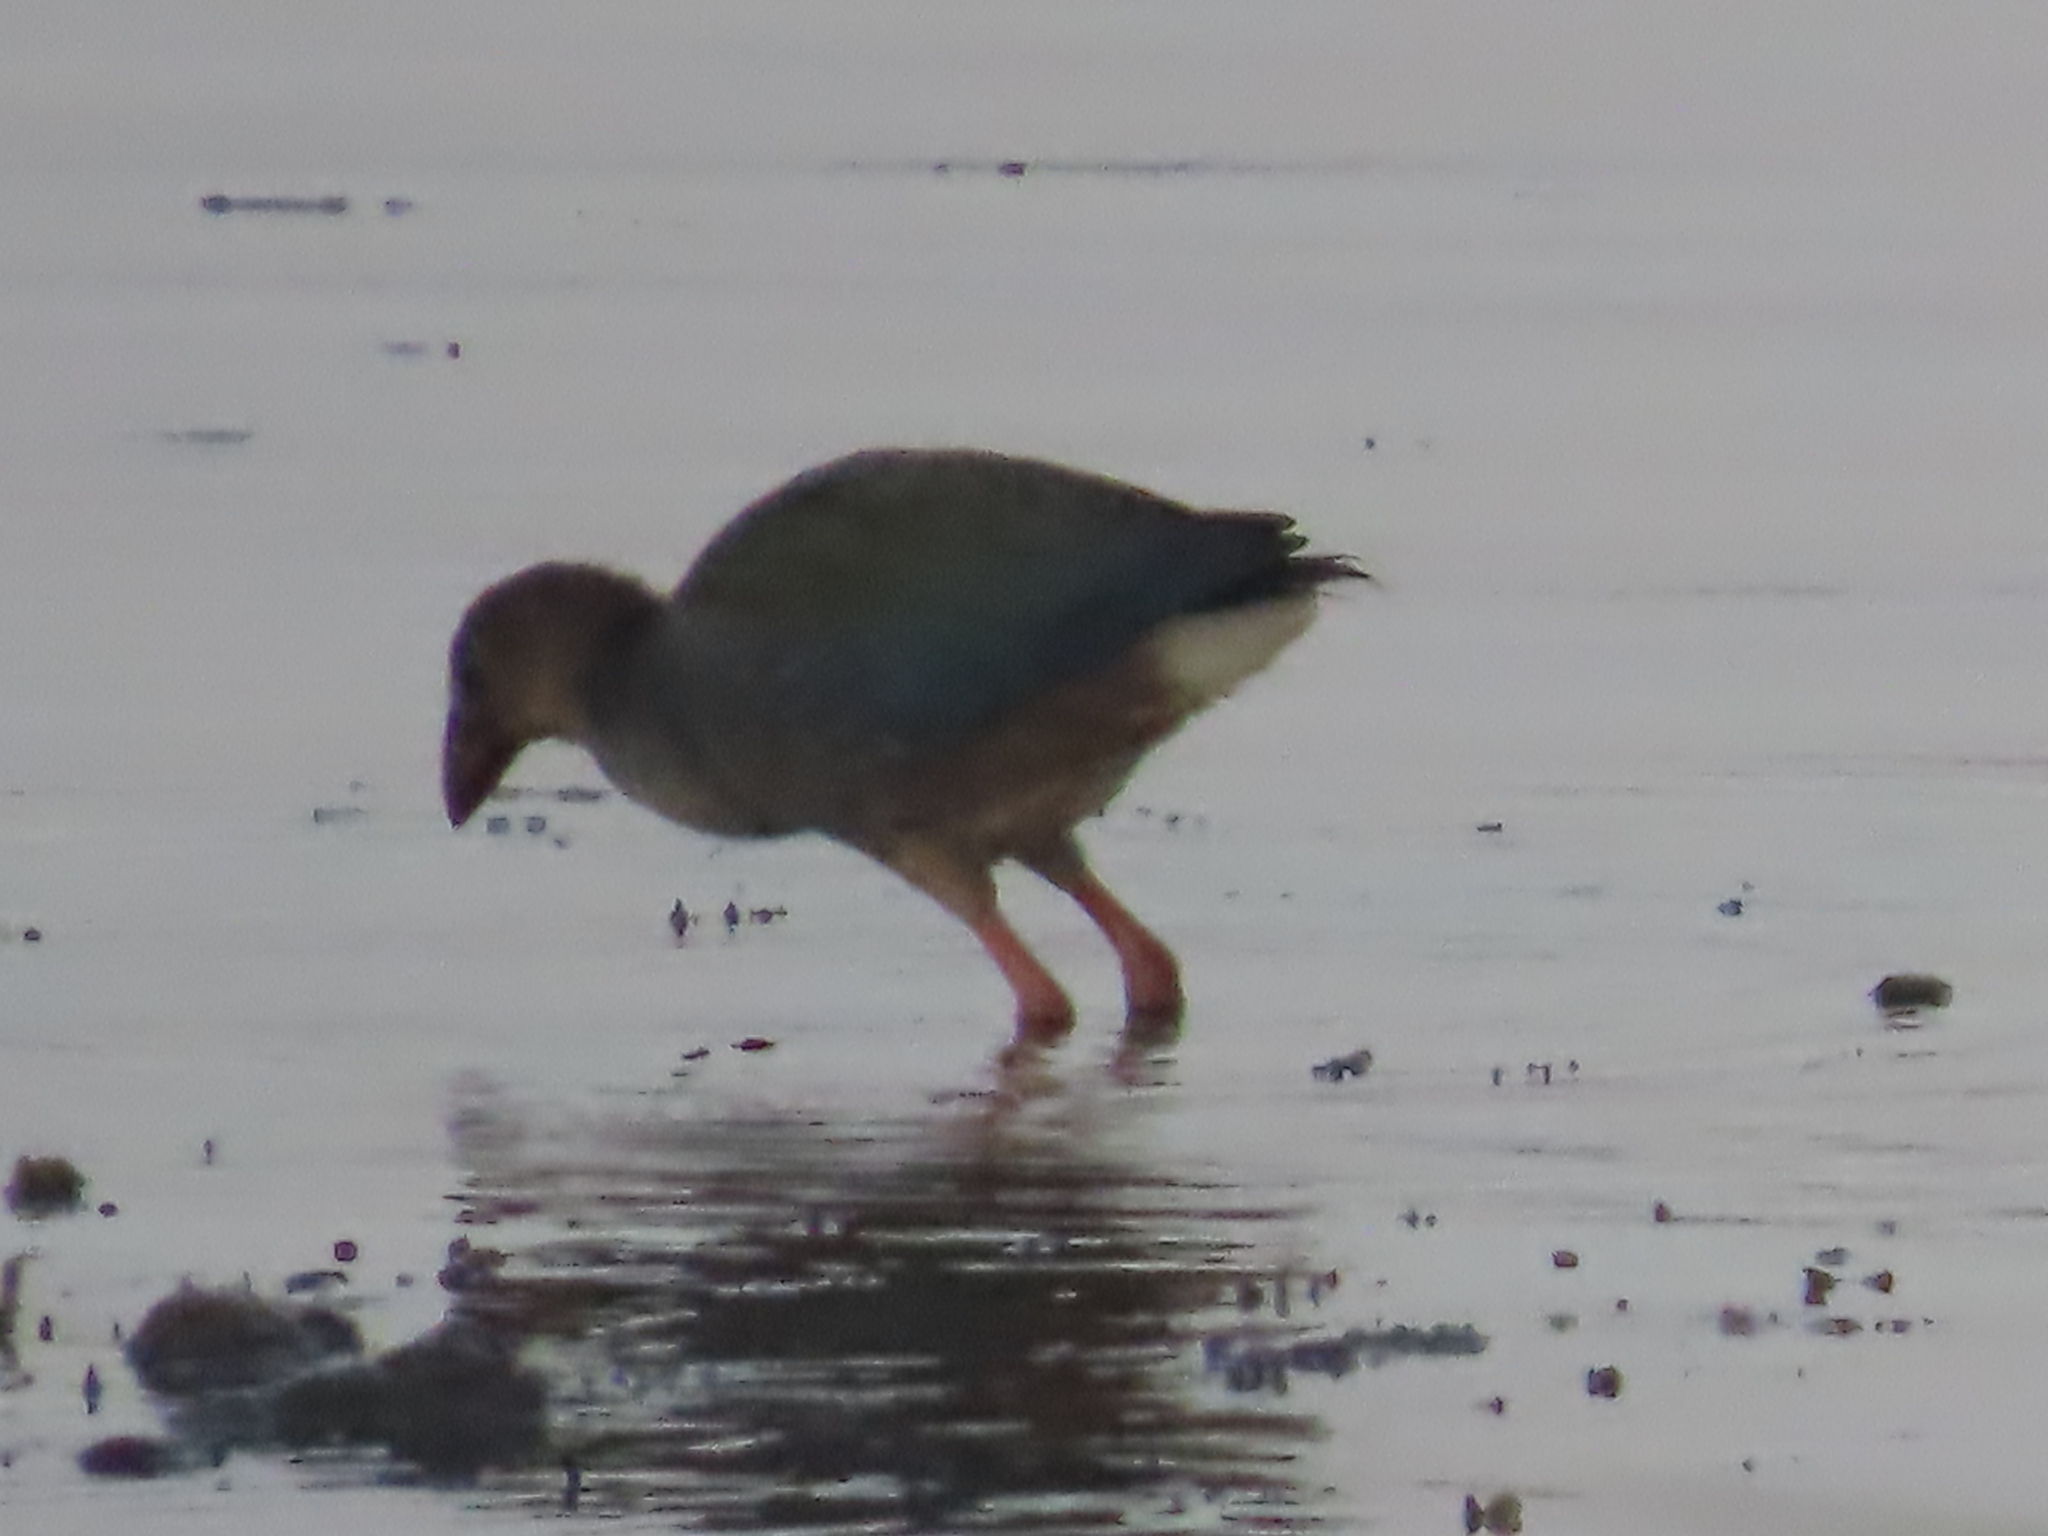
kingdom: Animalia
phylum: Chordata
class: Aves
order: Gruiformes
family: Rallidae
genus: Porphyrio
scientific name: Porphyrio porphyrio
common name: Purple swamphen
